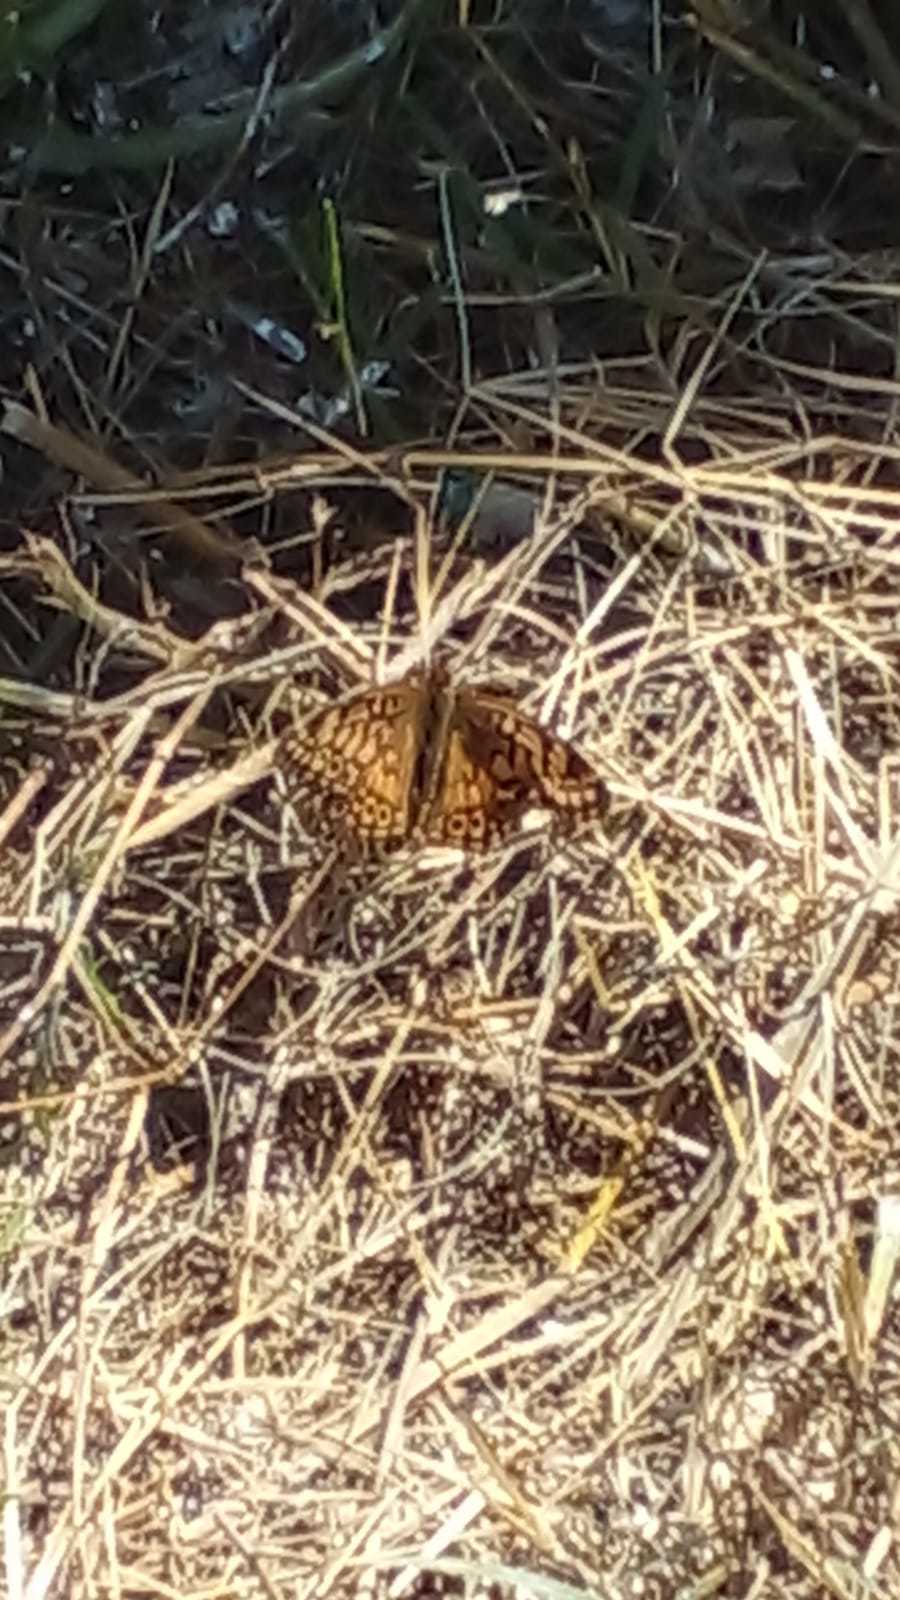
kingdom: Animalia
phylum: Arthropoda
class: Insecta
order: Lepidoptera
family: Nymphalidae
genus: Euptoieta
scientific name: Euptoieta hortensia
